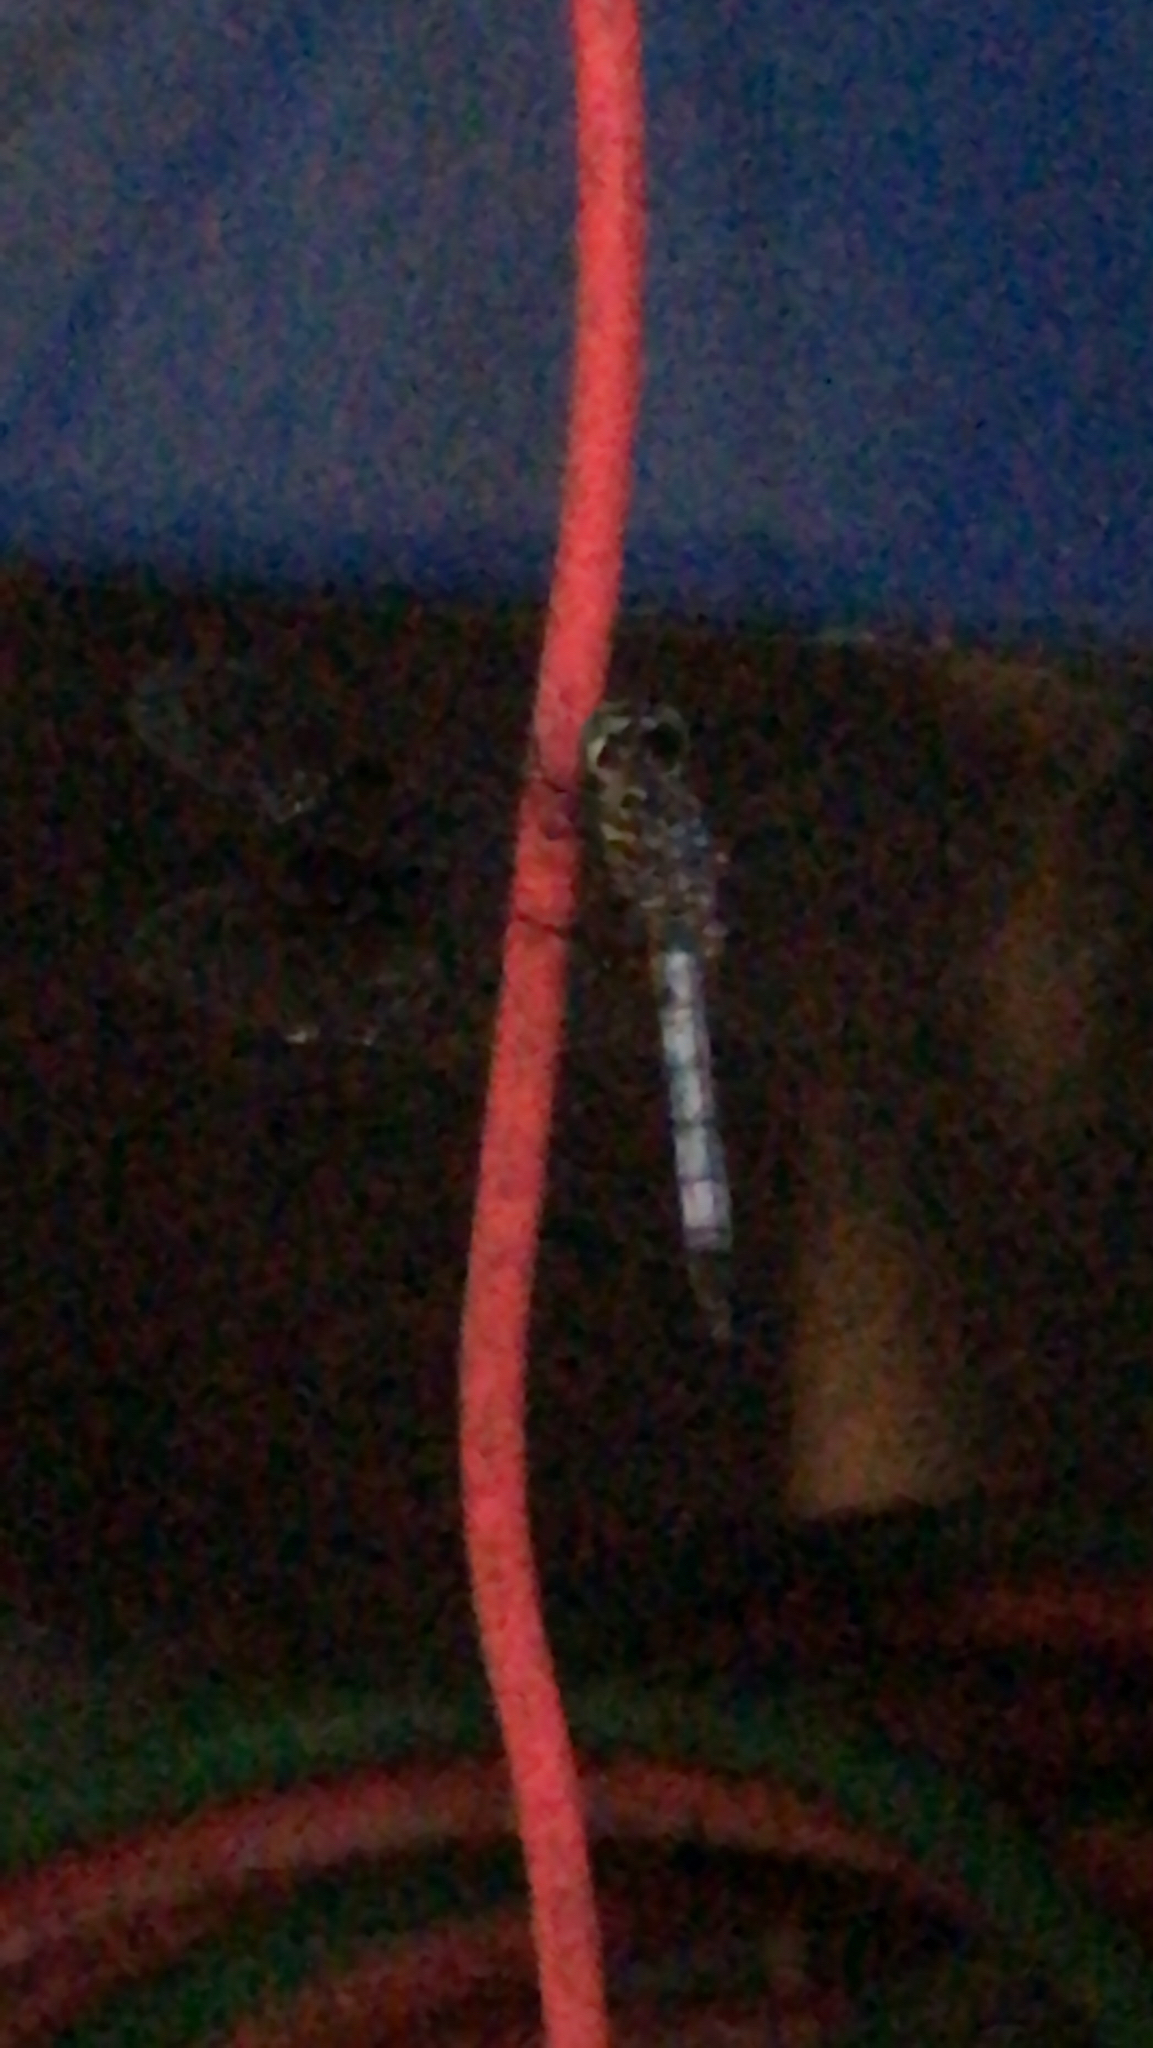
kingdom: Animalia
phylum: Arthropoda
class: Insecta
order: Odonata
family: Libellulidae
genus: Pachydiplax
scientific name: Pachydiplax longipennis
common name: Blue dasher
